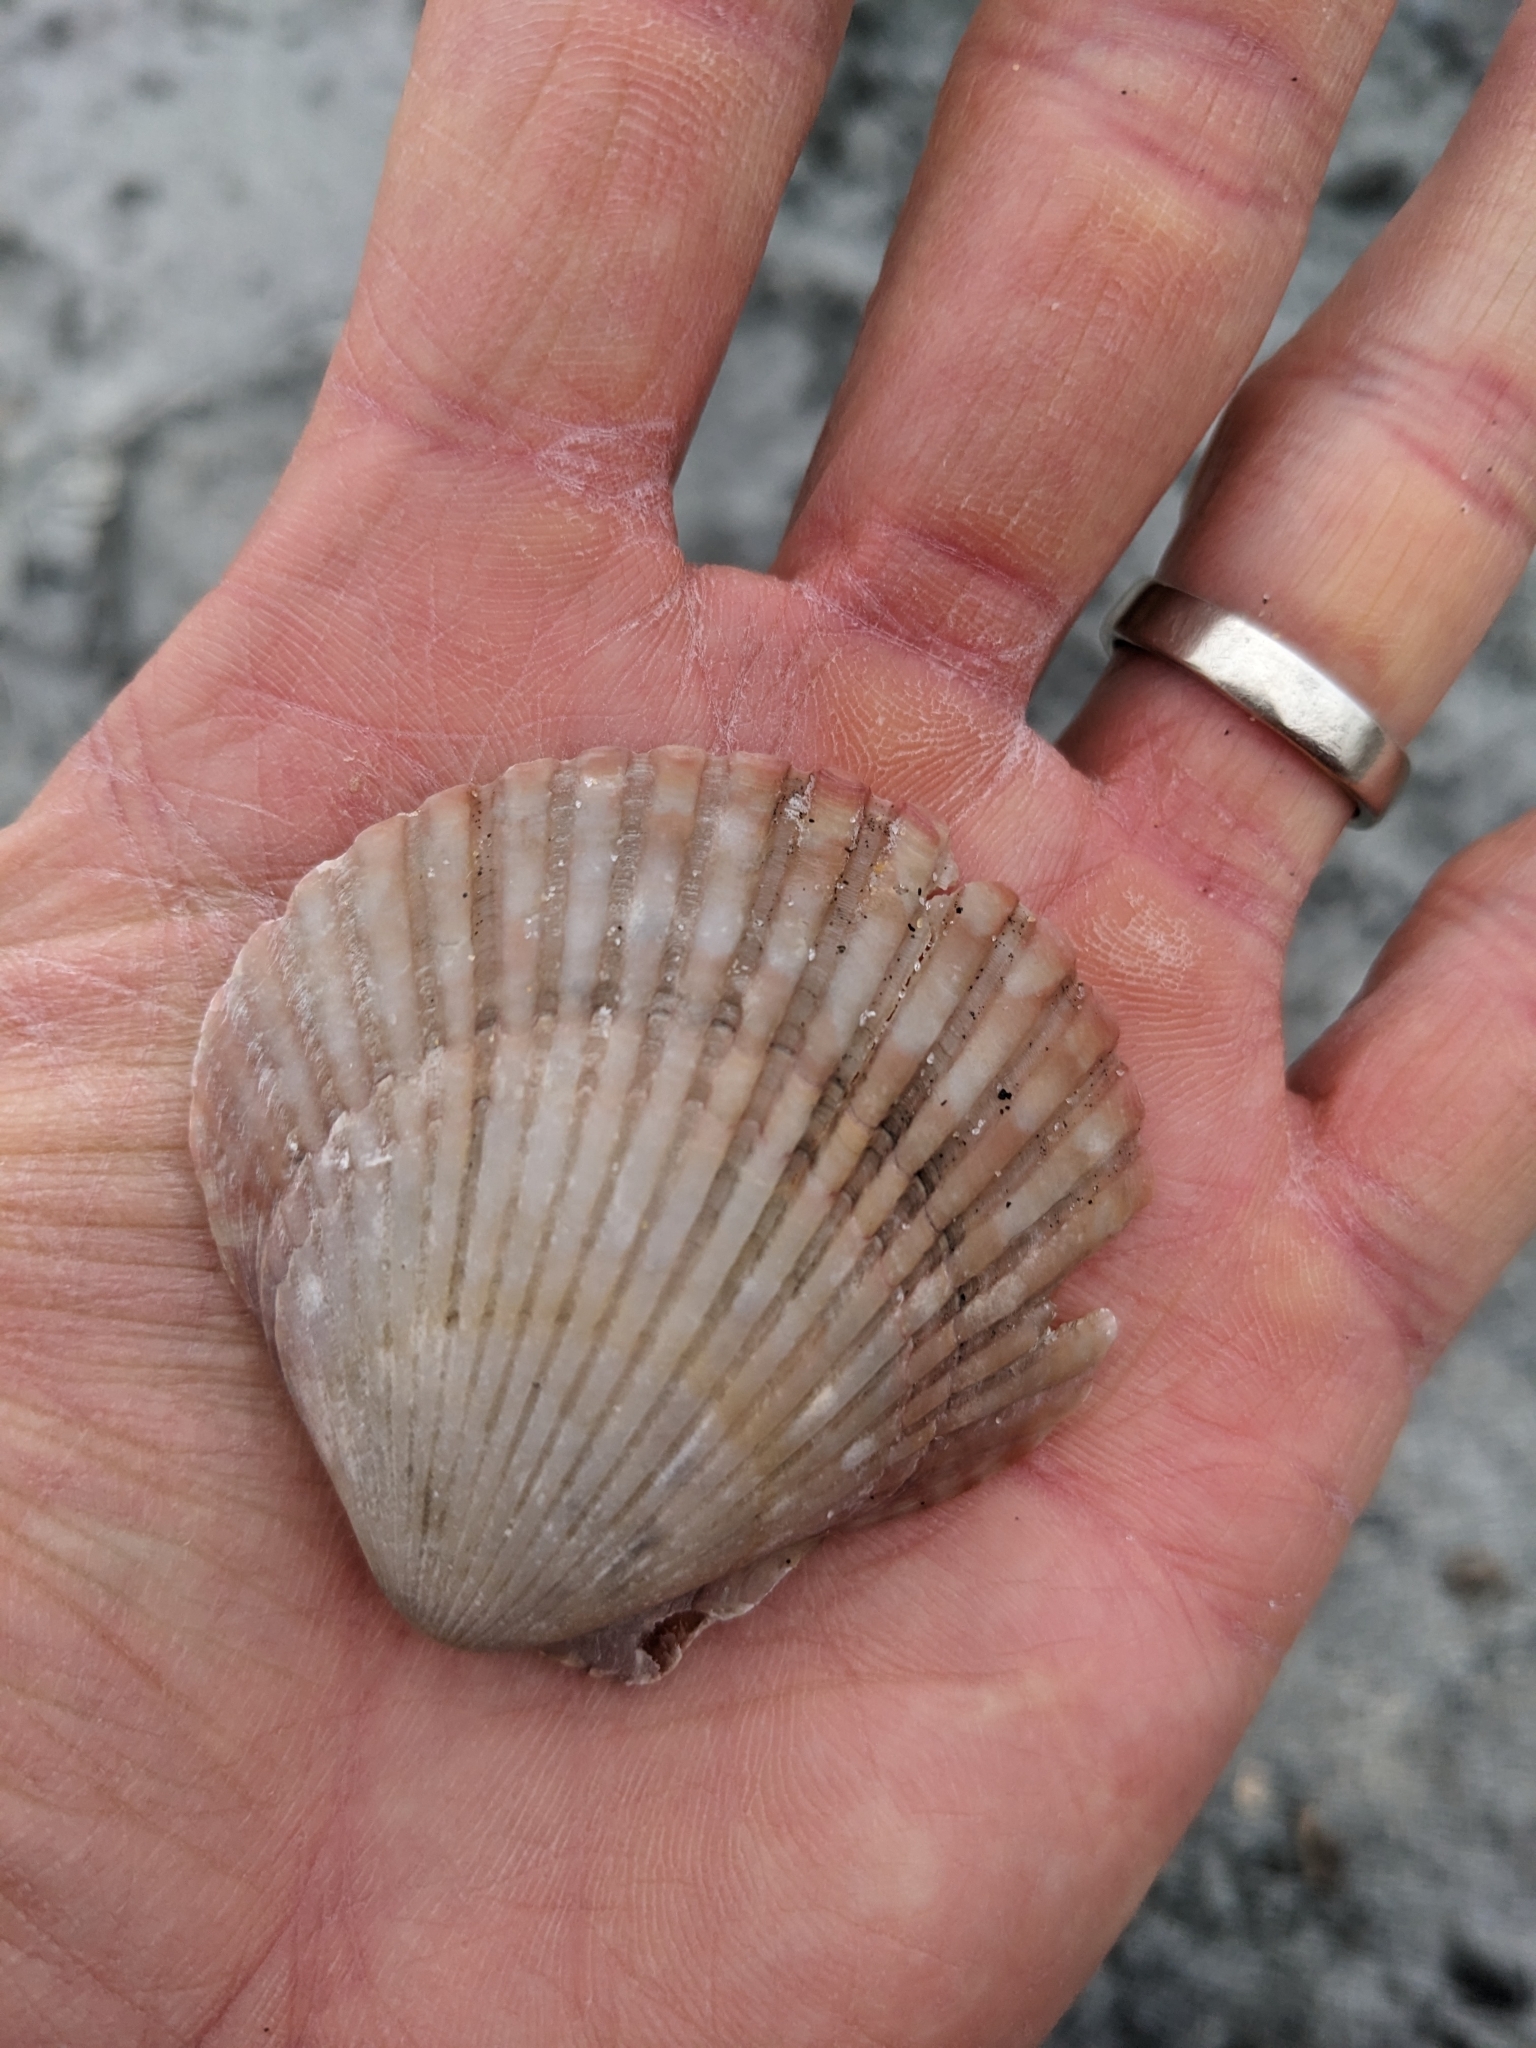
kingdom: Animalia
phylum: Mollusca
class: Bivalvia
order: Pectinida
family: Pectinidae
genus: Argopecten
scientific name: Argopecten ventricosus
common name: Catarina scallop
